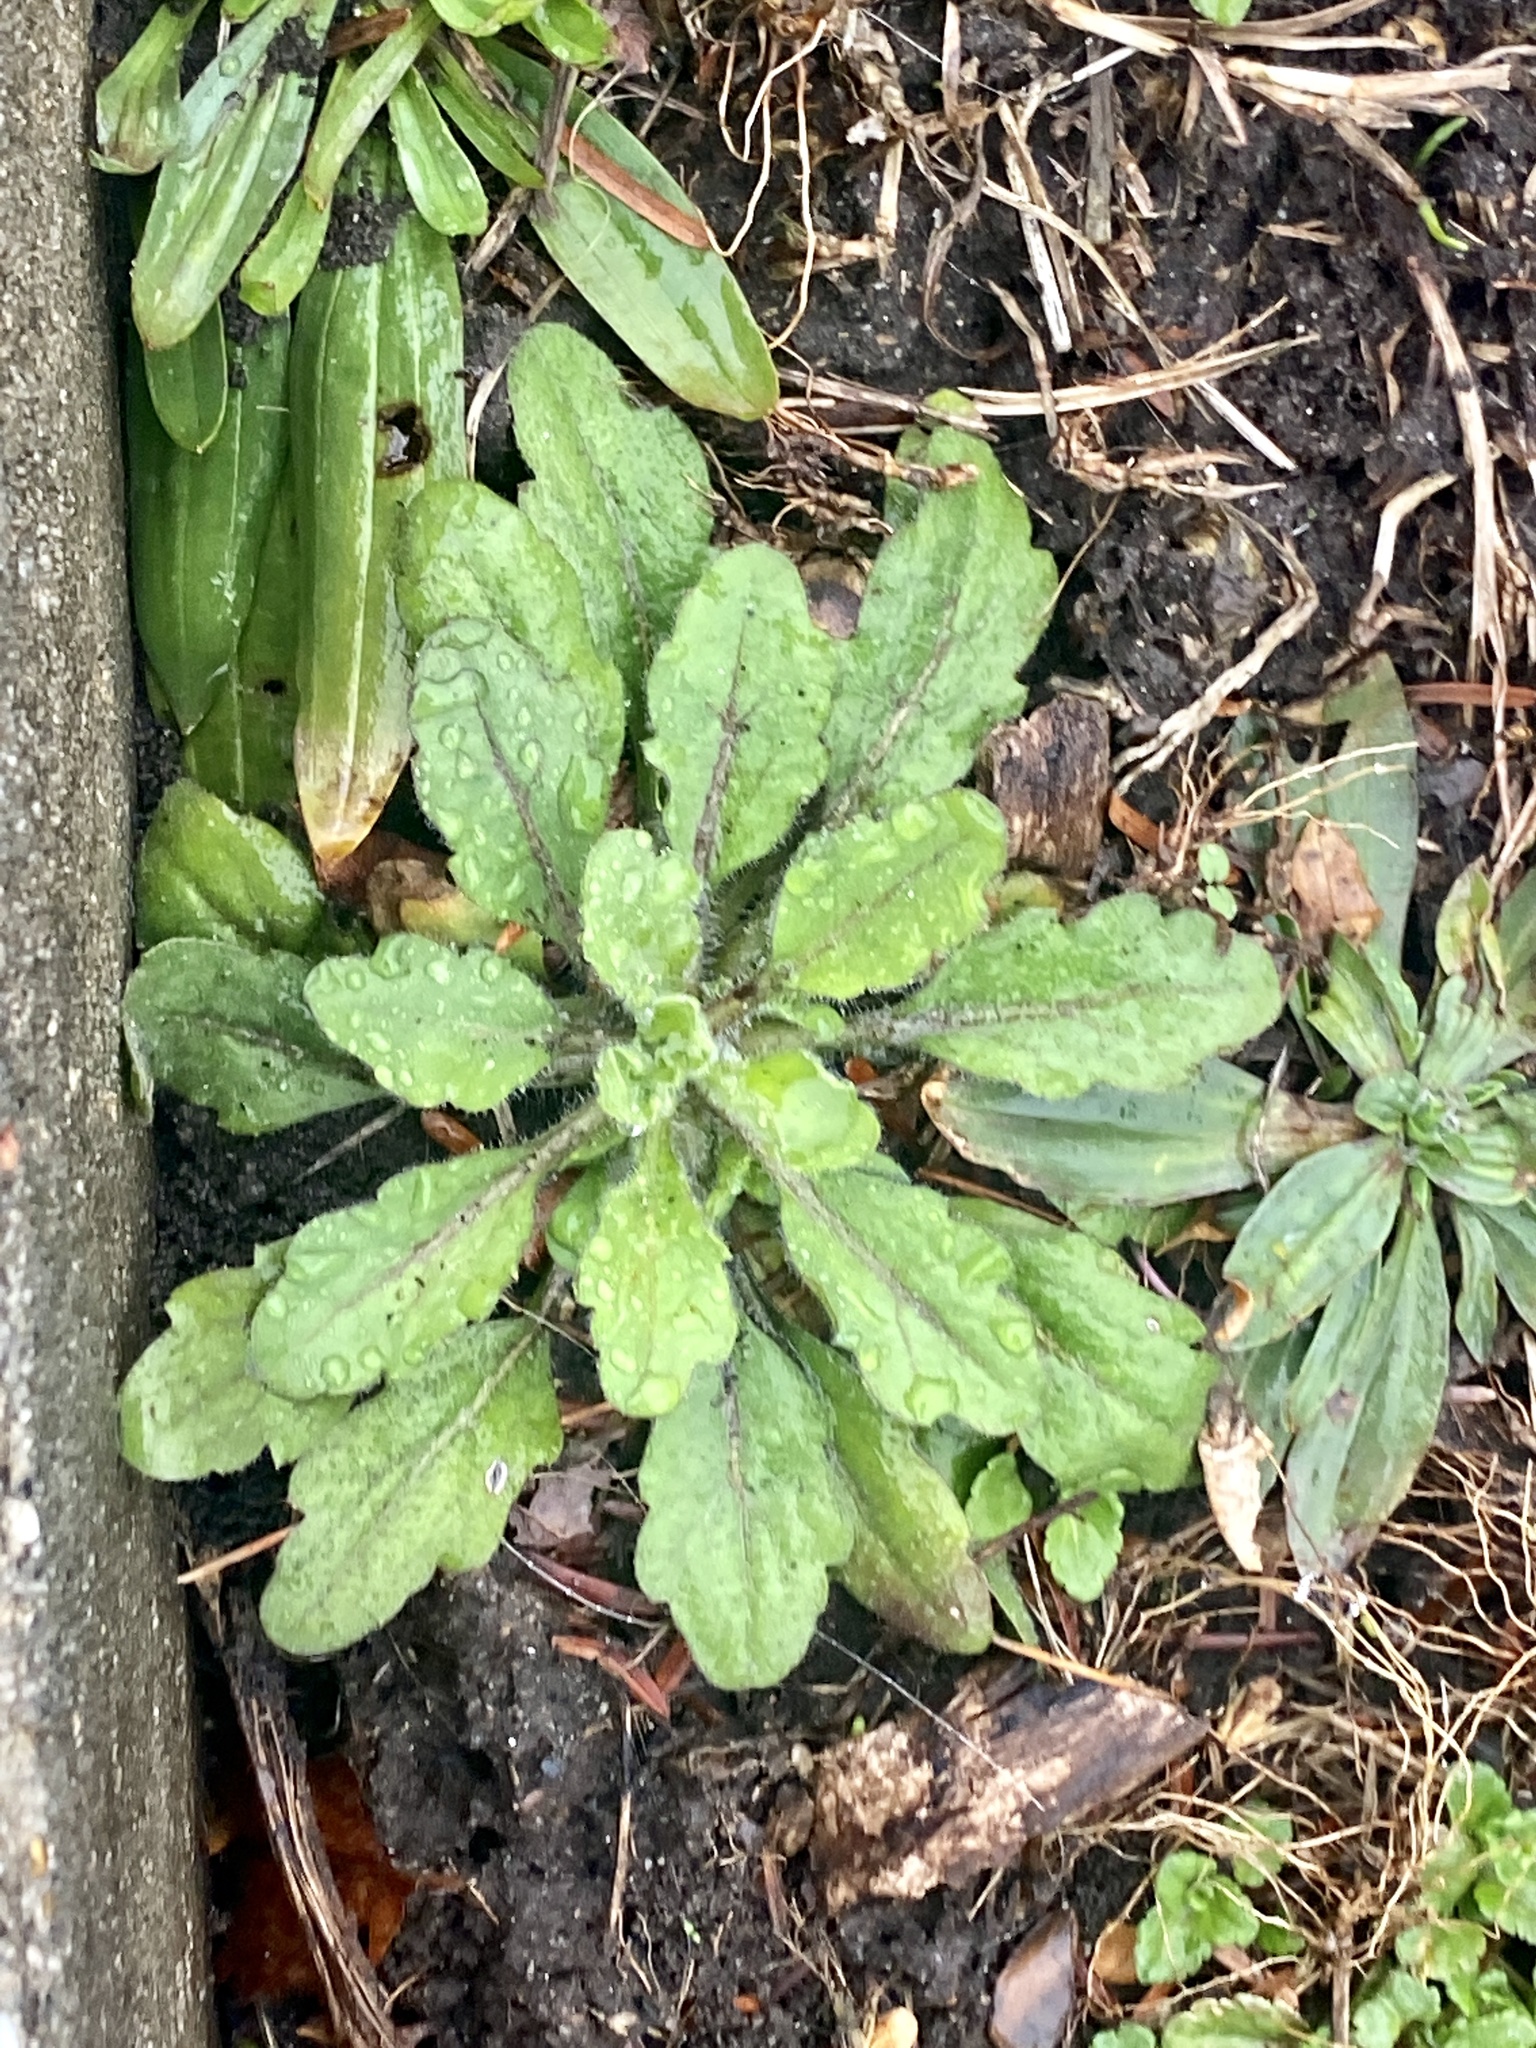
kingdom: Plantae
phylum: Tracheophyta
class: Magnoliopsida
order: Asterales
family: Asteraceae
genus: Erigeron
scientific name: Erigeron canadensis
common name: Canadian fleabane
